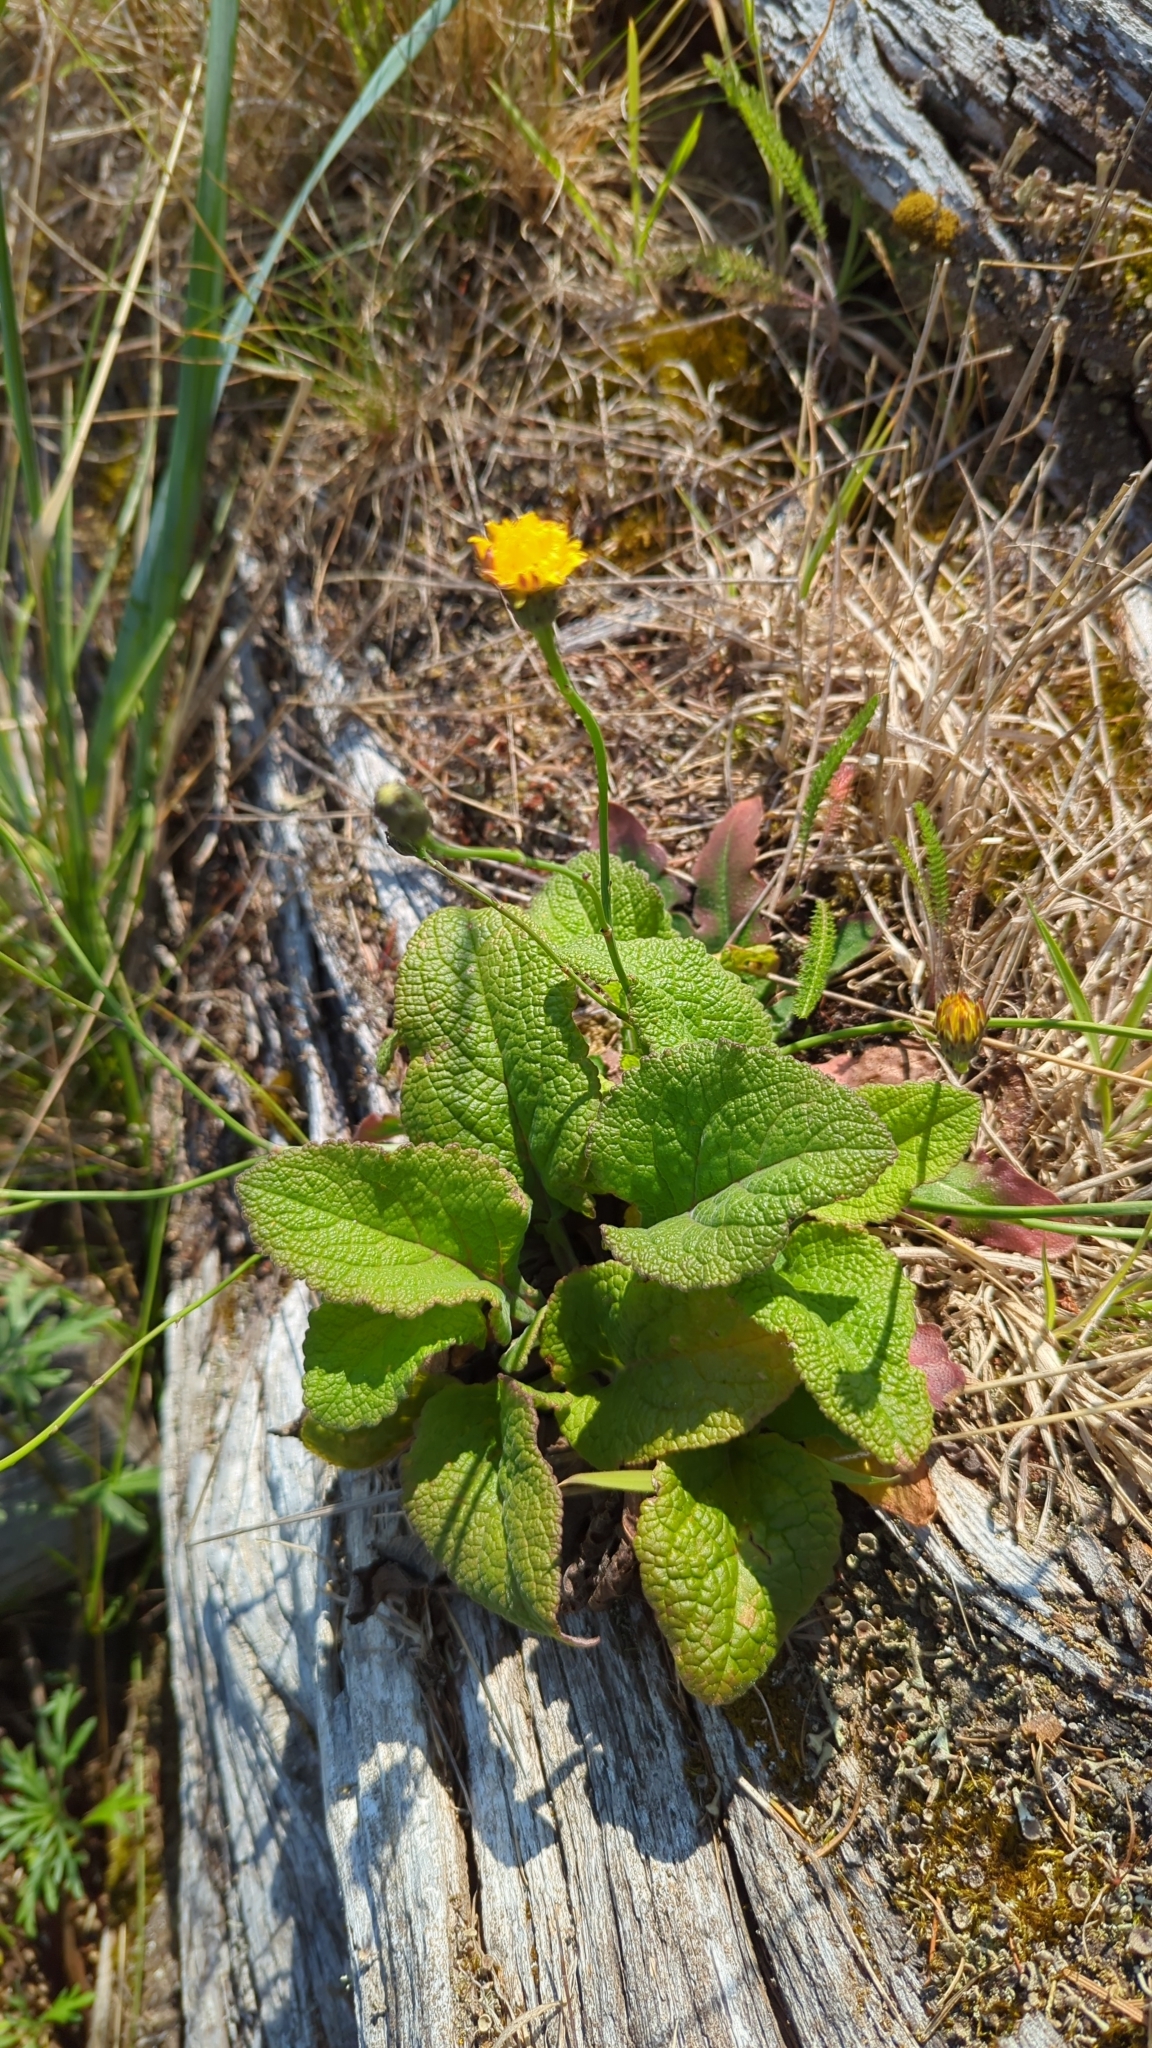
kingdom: Plantae
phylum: Tracheophyta
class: Magnoliopsida
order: Lamiales
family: Plantaginaceae
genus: Digitalis
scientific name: Digitalis purpurea
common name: Foxglove
